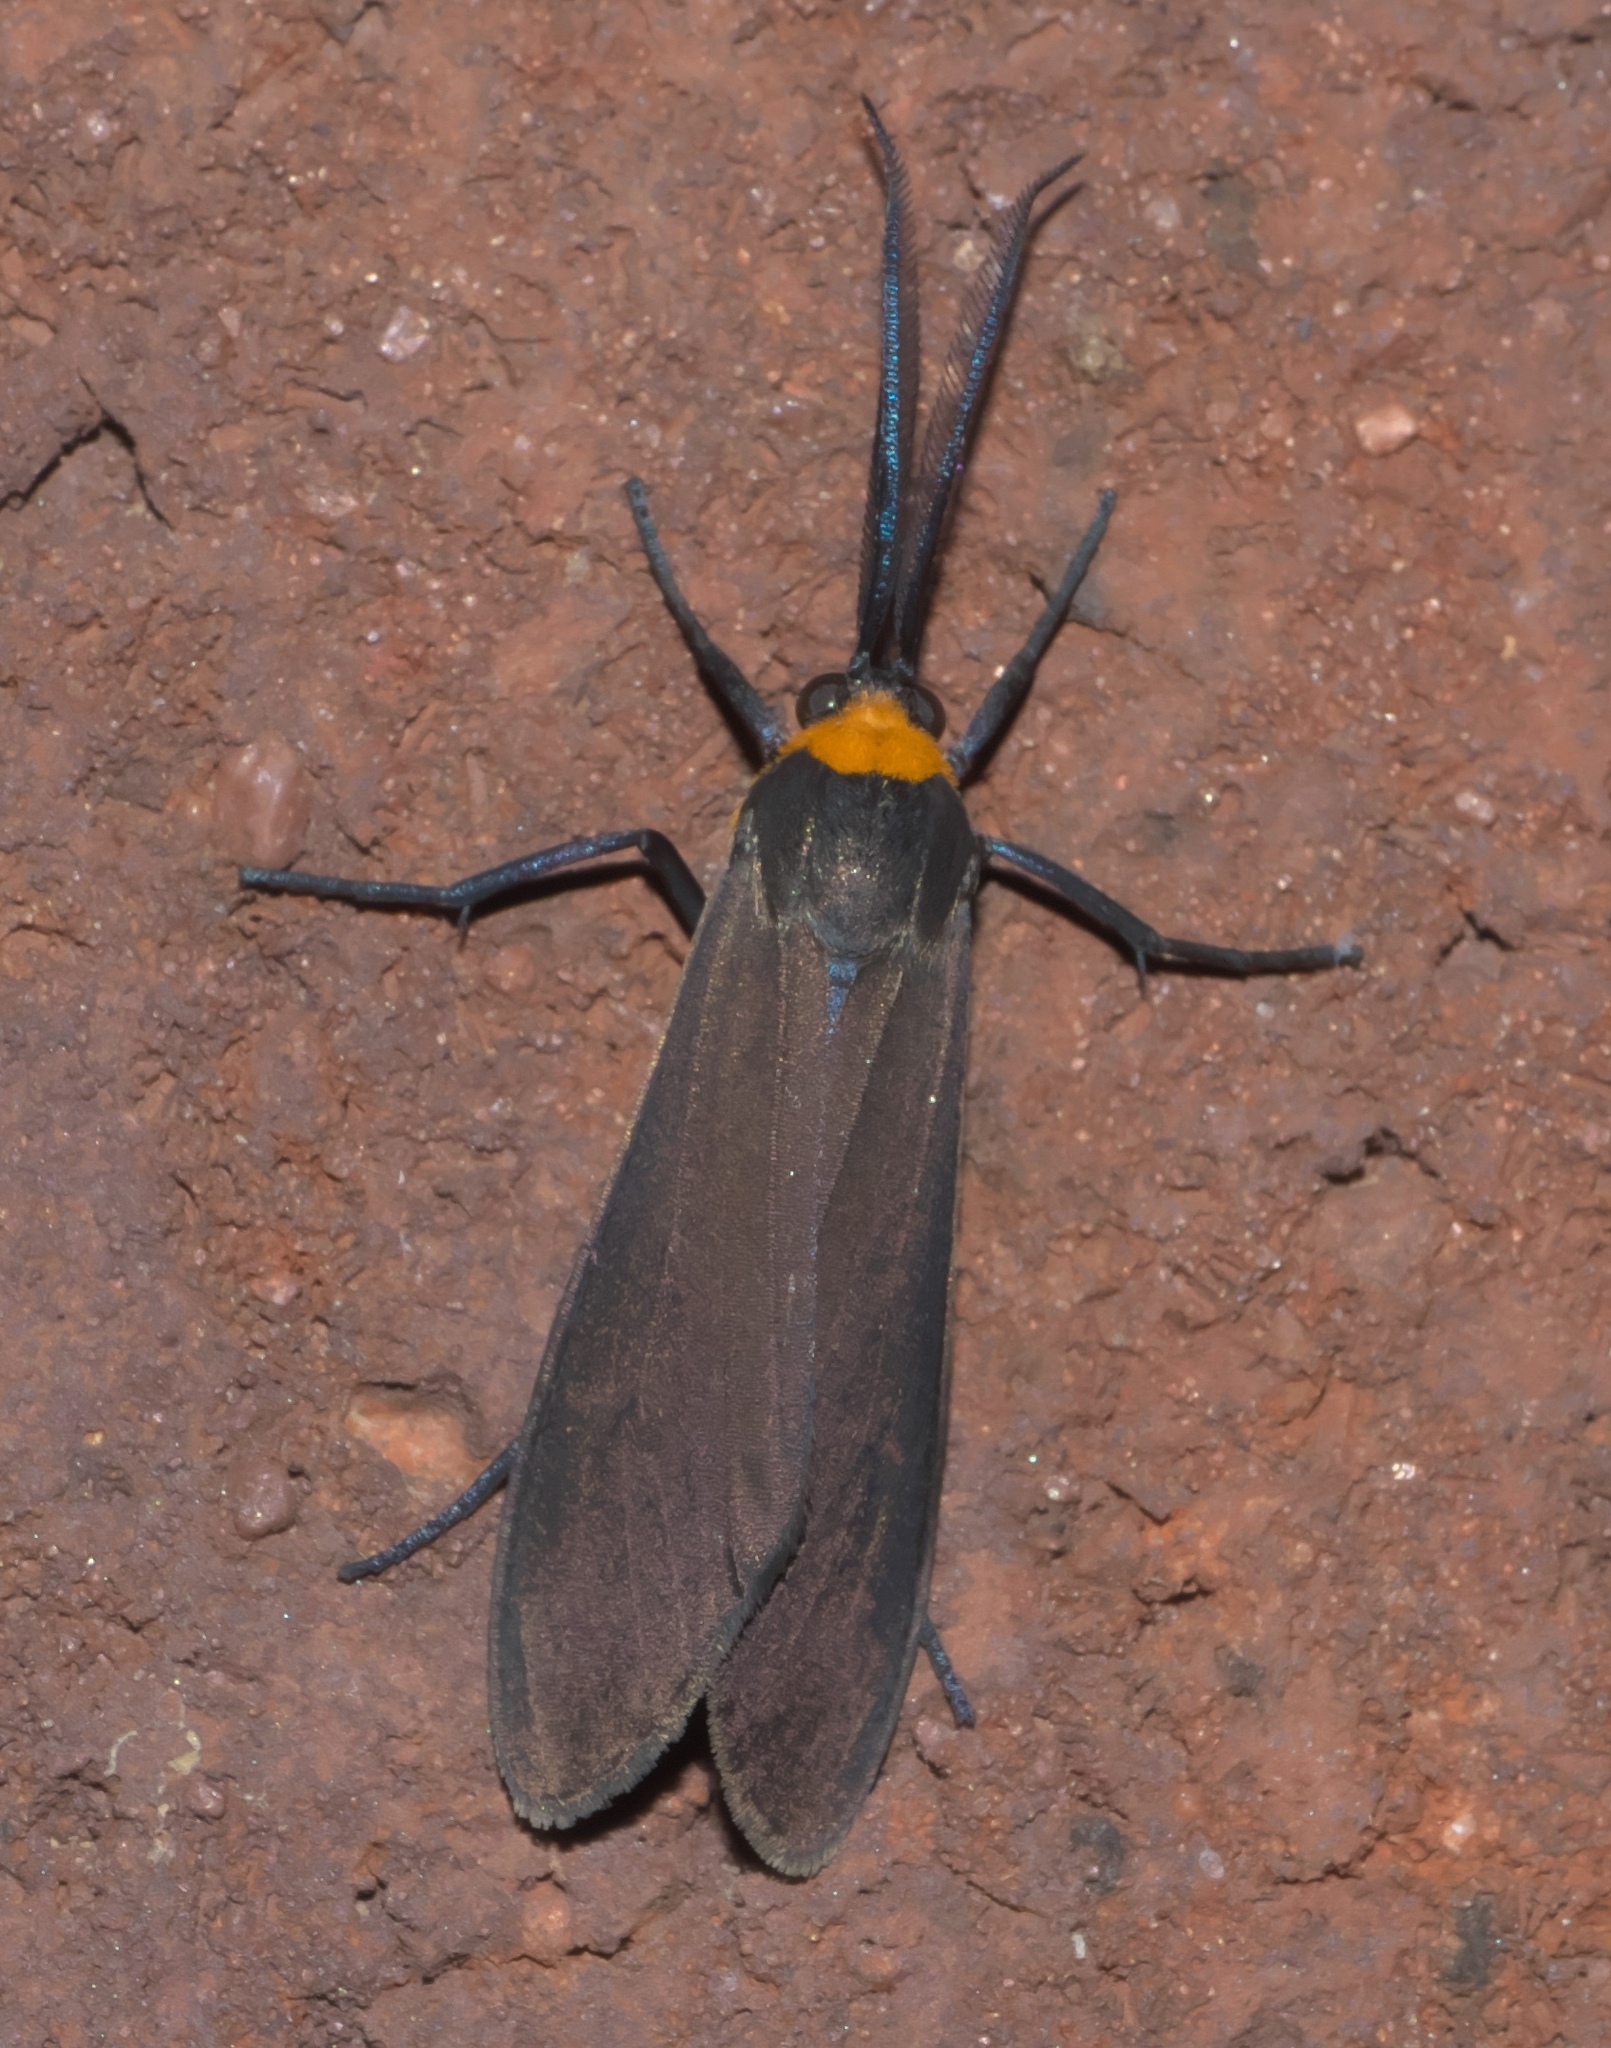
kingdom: Animalia
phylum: Arthropoda
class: Insecta
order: Lepidoptera
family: Erebidae
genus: Cisseps
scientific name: Cisseps fulvicollis
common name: Yellow-collared scape moth
